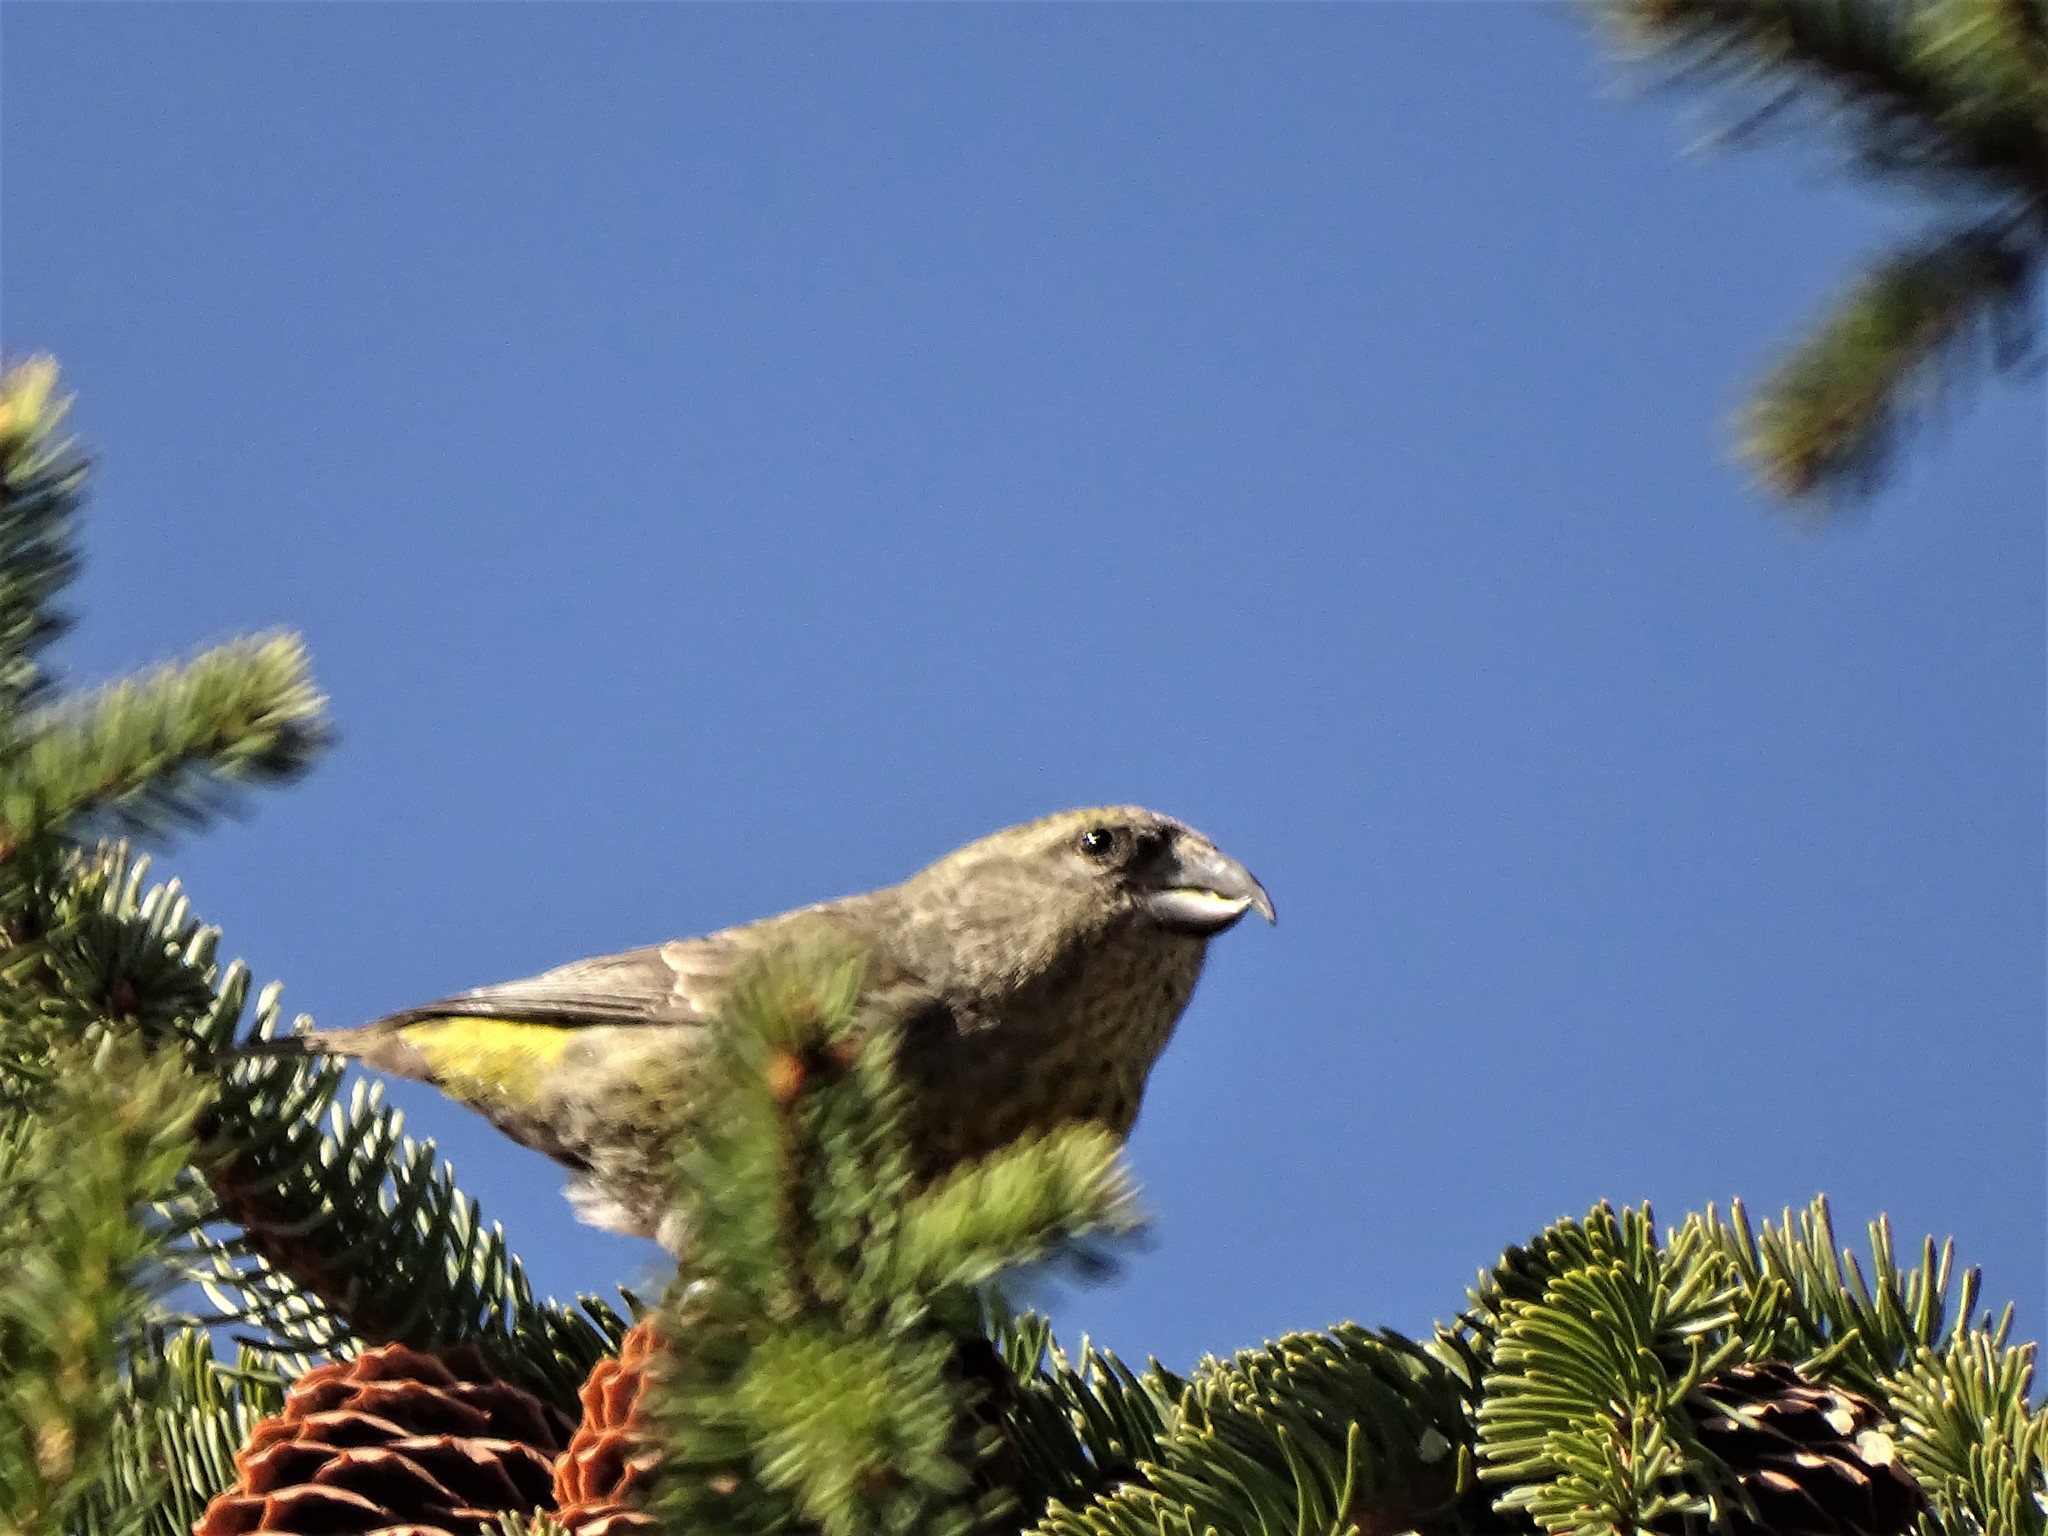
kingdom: Animalia
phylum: Chordata
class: Aves
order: Passeriformes
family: Fringillidae
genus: Loxia
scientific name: Loxia curvirostra
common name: Red crossbill
